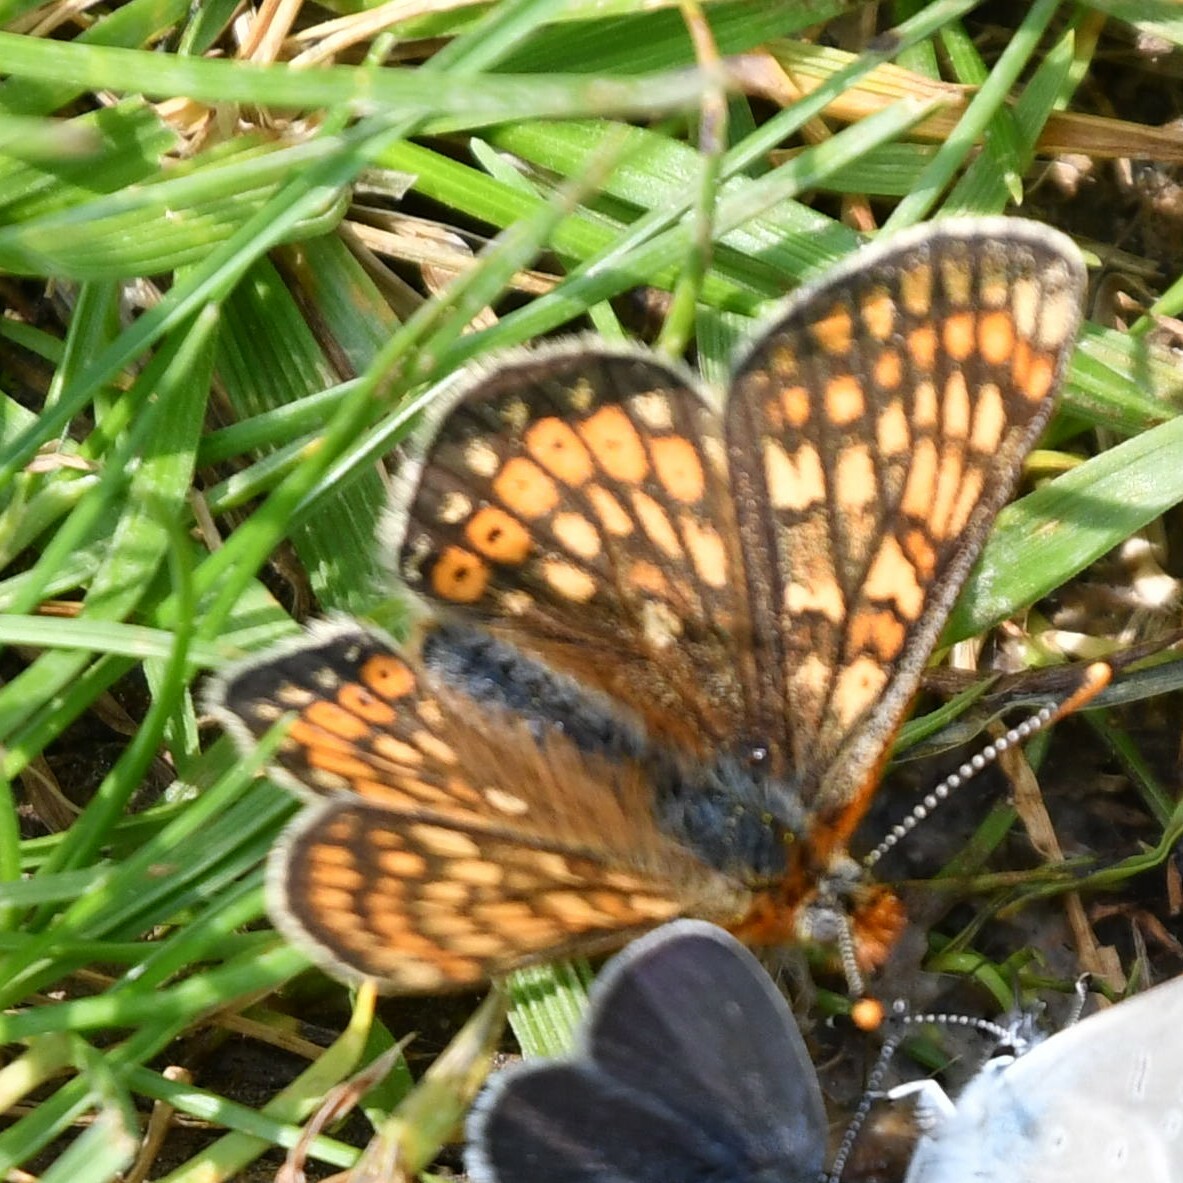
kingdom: Animalia
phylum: Arthropoda
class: Insecta
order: Lepidoptera
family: Nymphalidae
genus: Euphydryas
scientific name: Euphydryas aurinia
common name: Marsh fritillary
